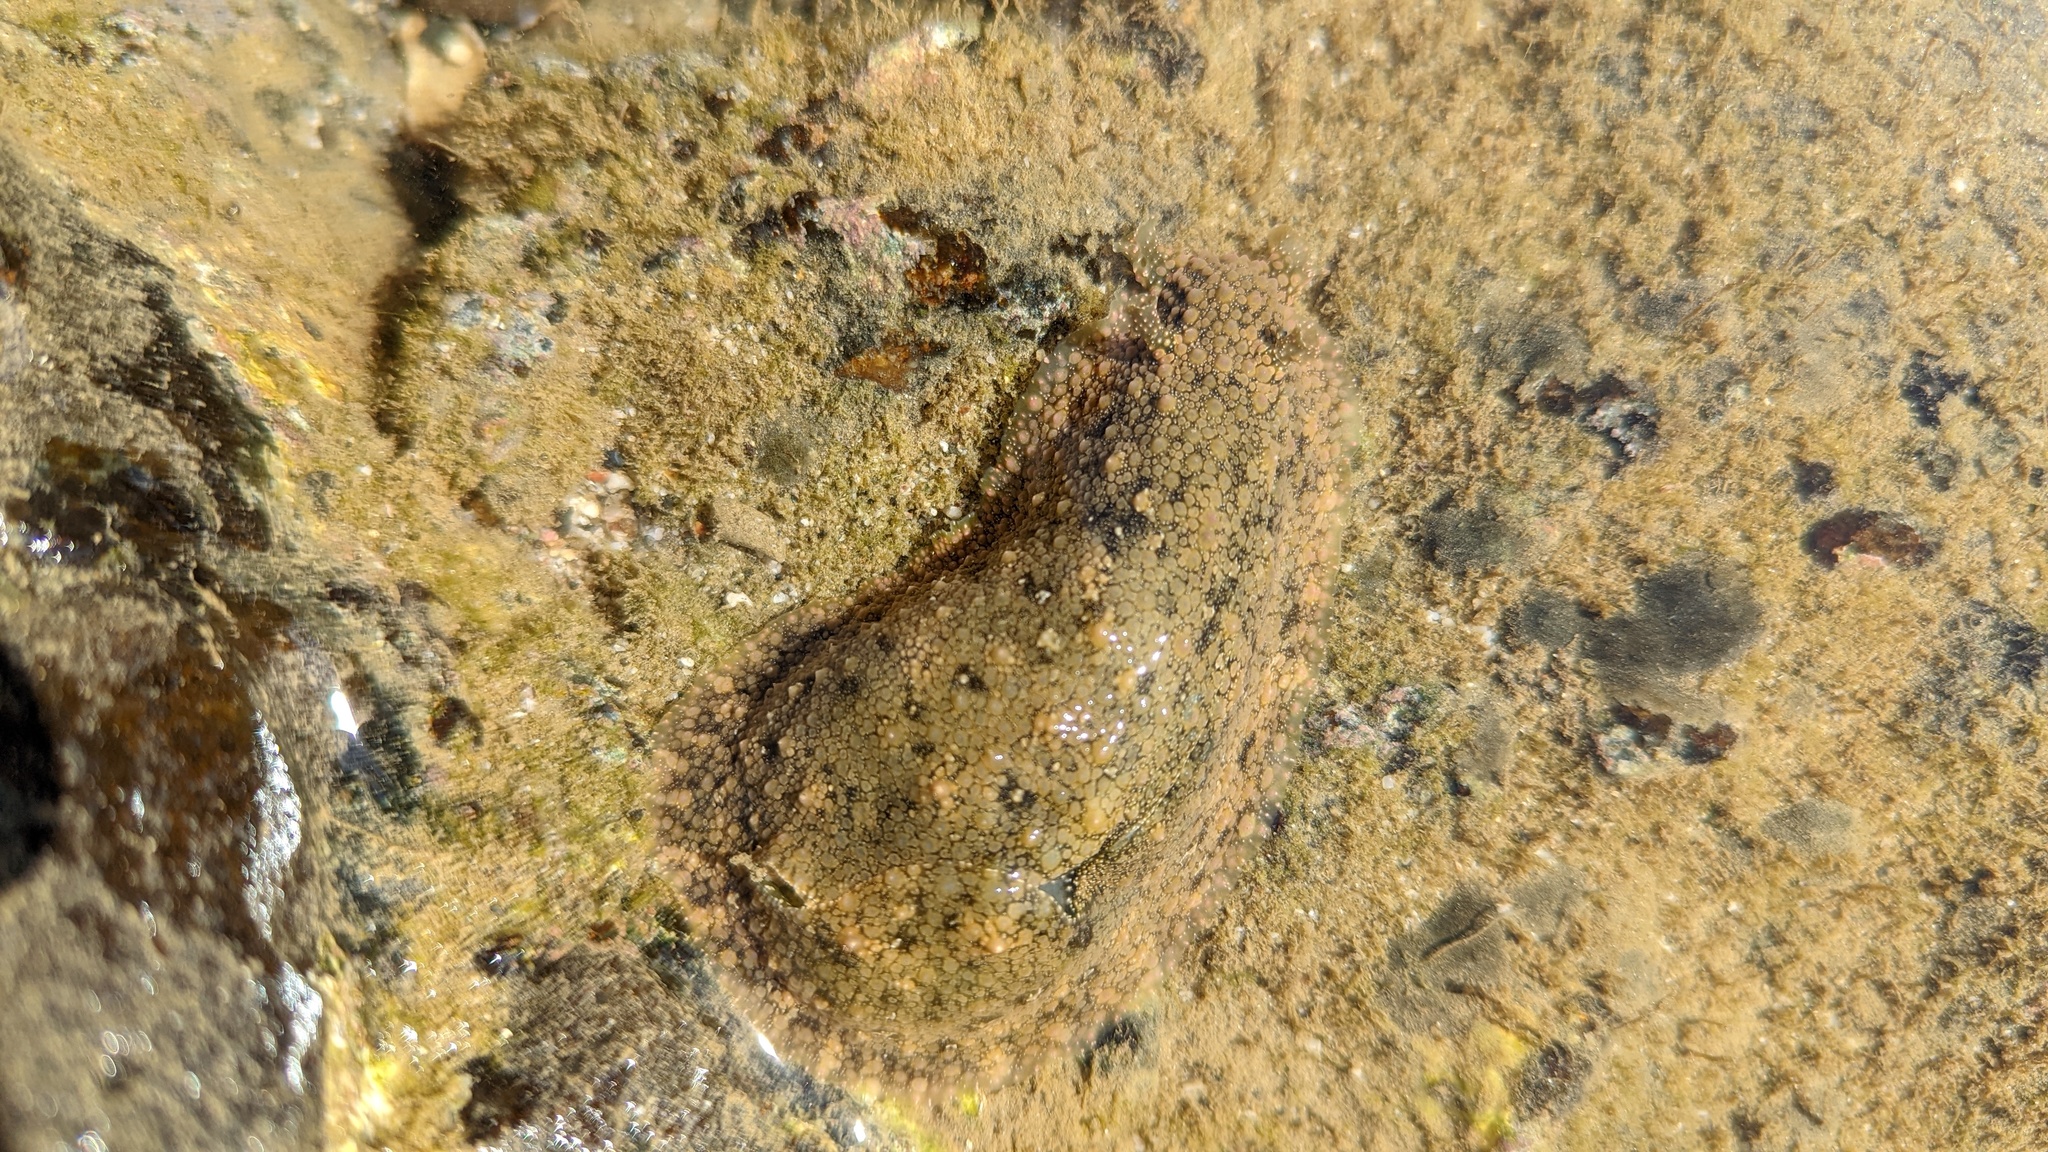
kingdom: Animalia
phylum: Mollusca
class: Gastropoda
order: Aplysiida
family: Aplysiidae
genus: Dolabrifera
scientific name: Dolabrifera nicaraguana
